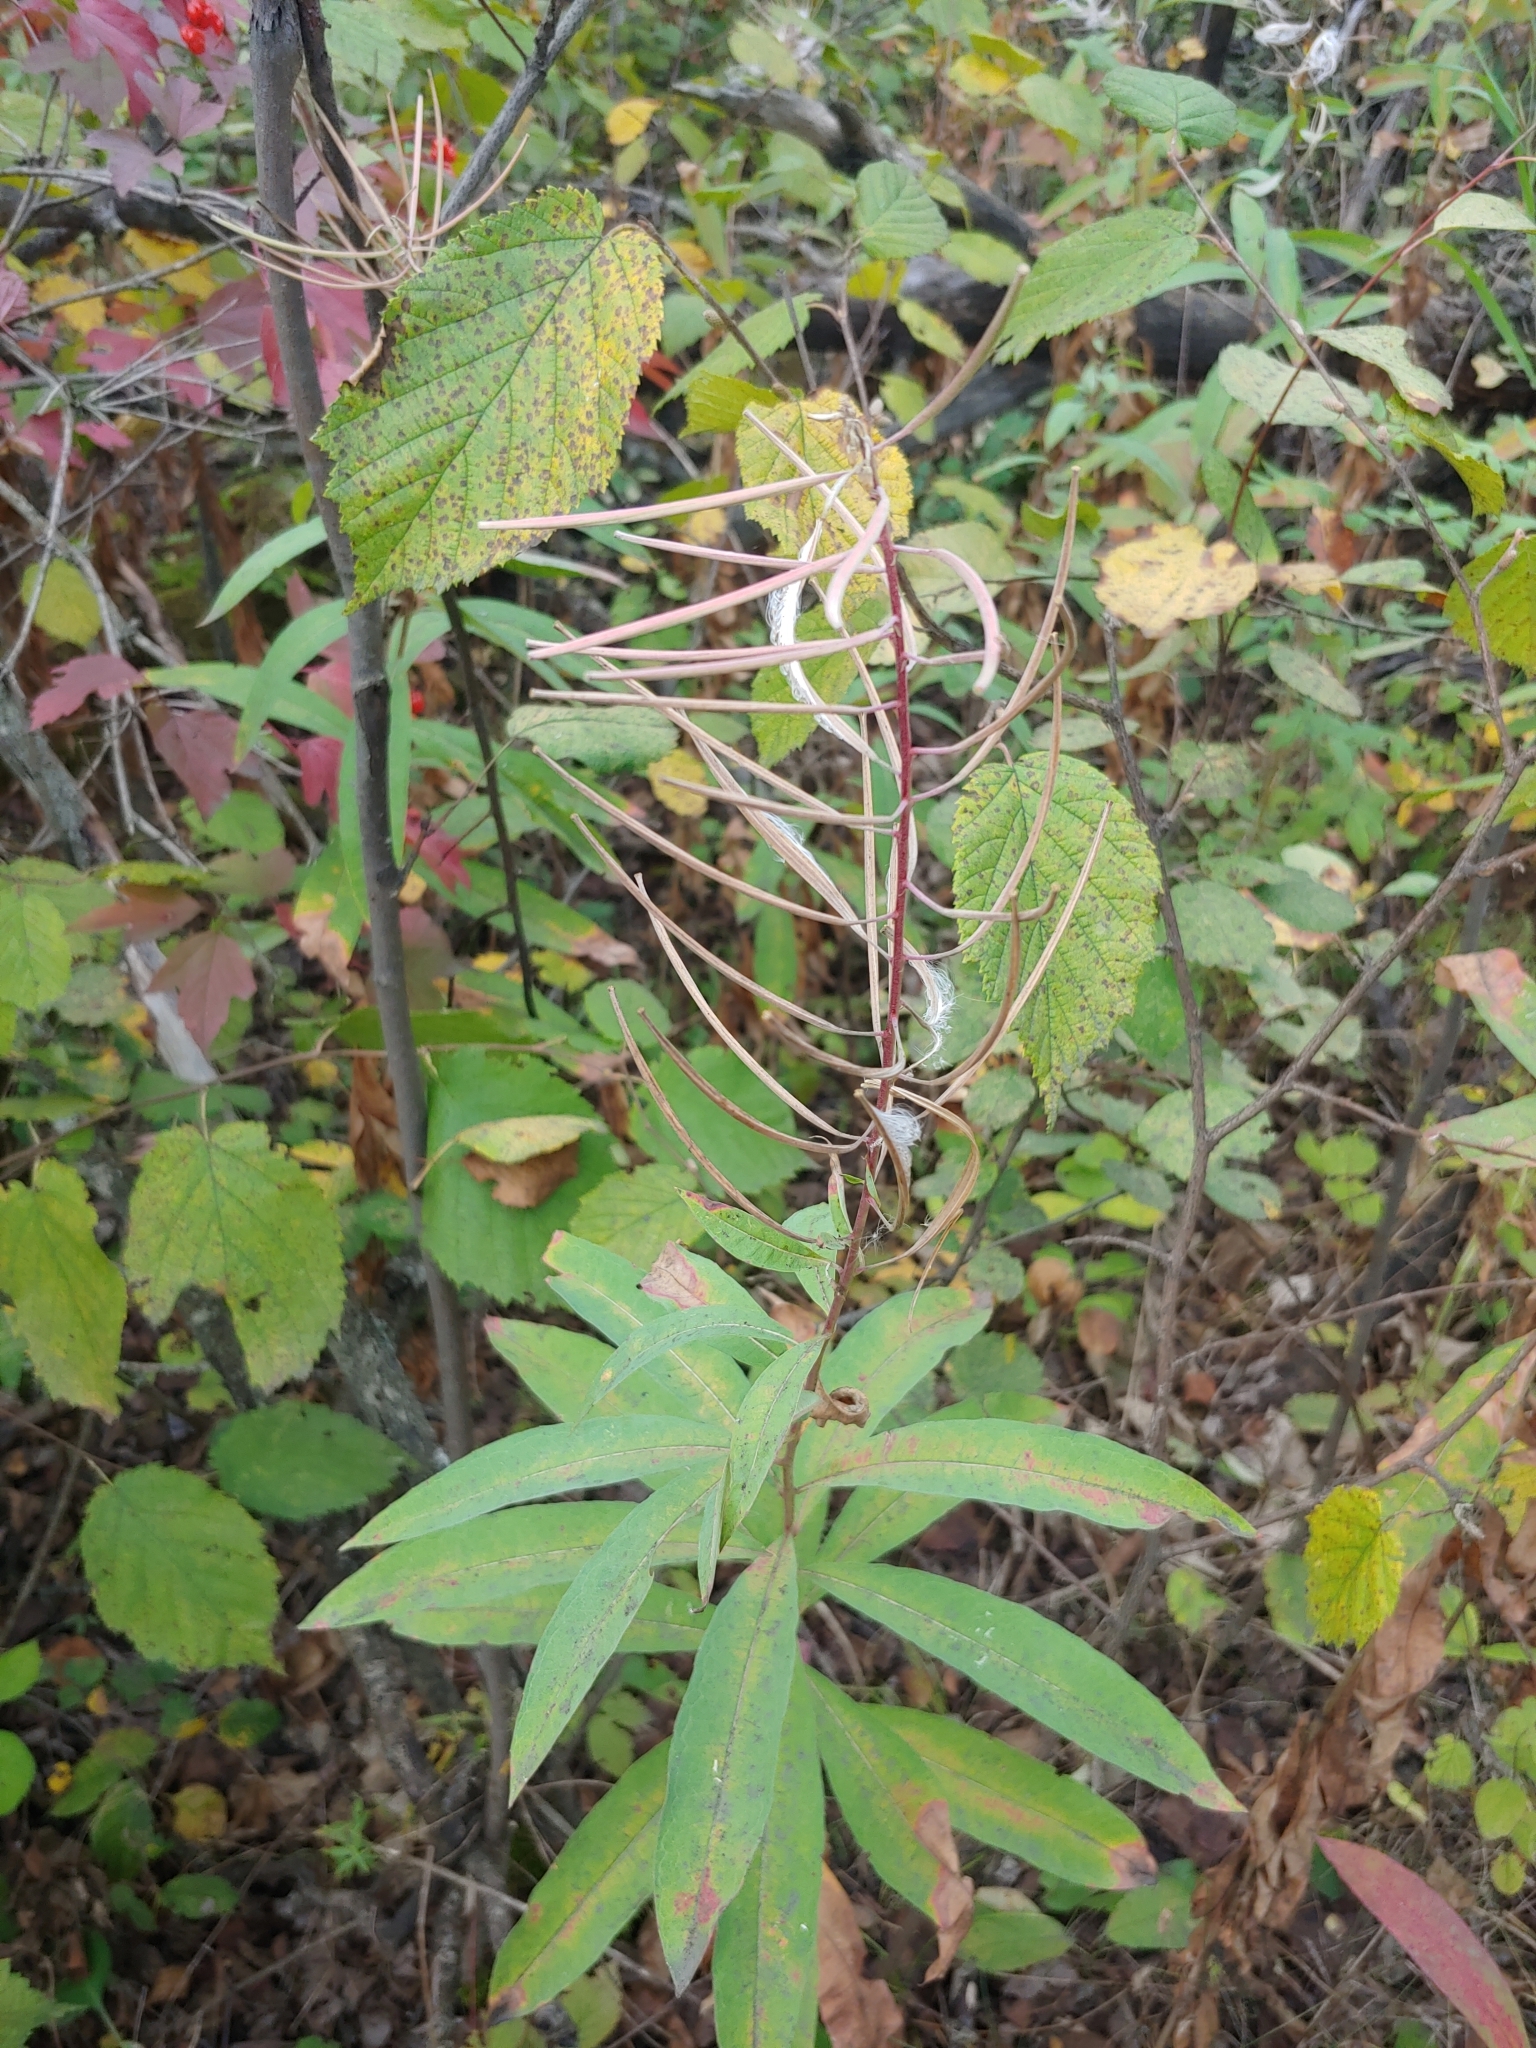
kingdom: Plantae
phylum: Tracheophyta
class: Magnoliopsida
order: Myrtales
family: Onagraceae
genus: Chamaenerion
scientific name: Chamaenerion angustifolium
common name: Fireweed
